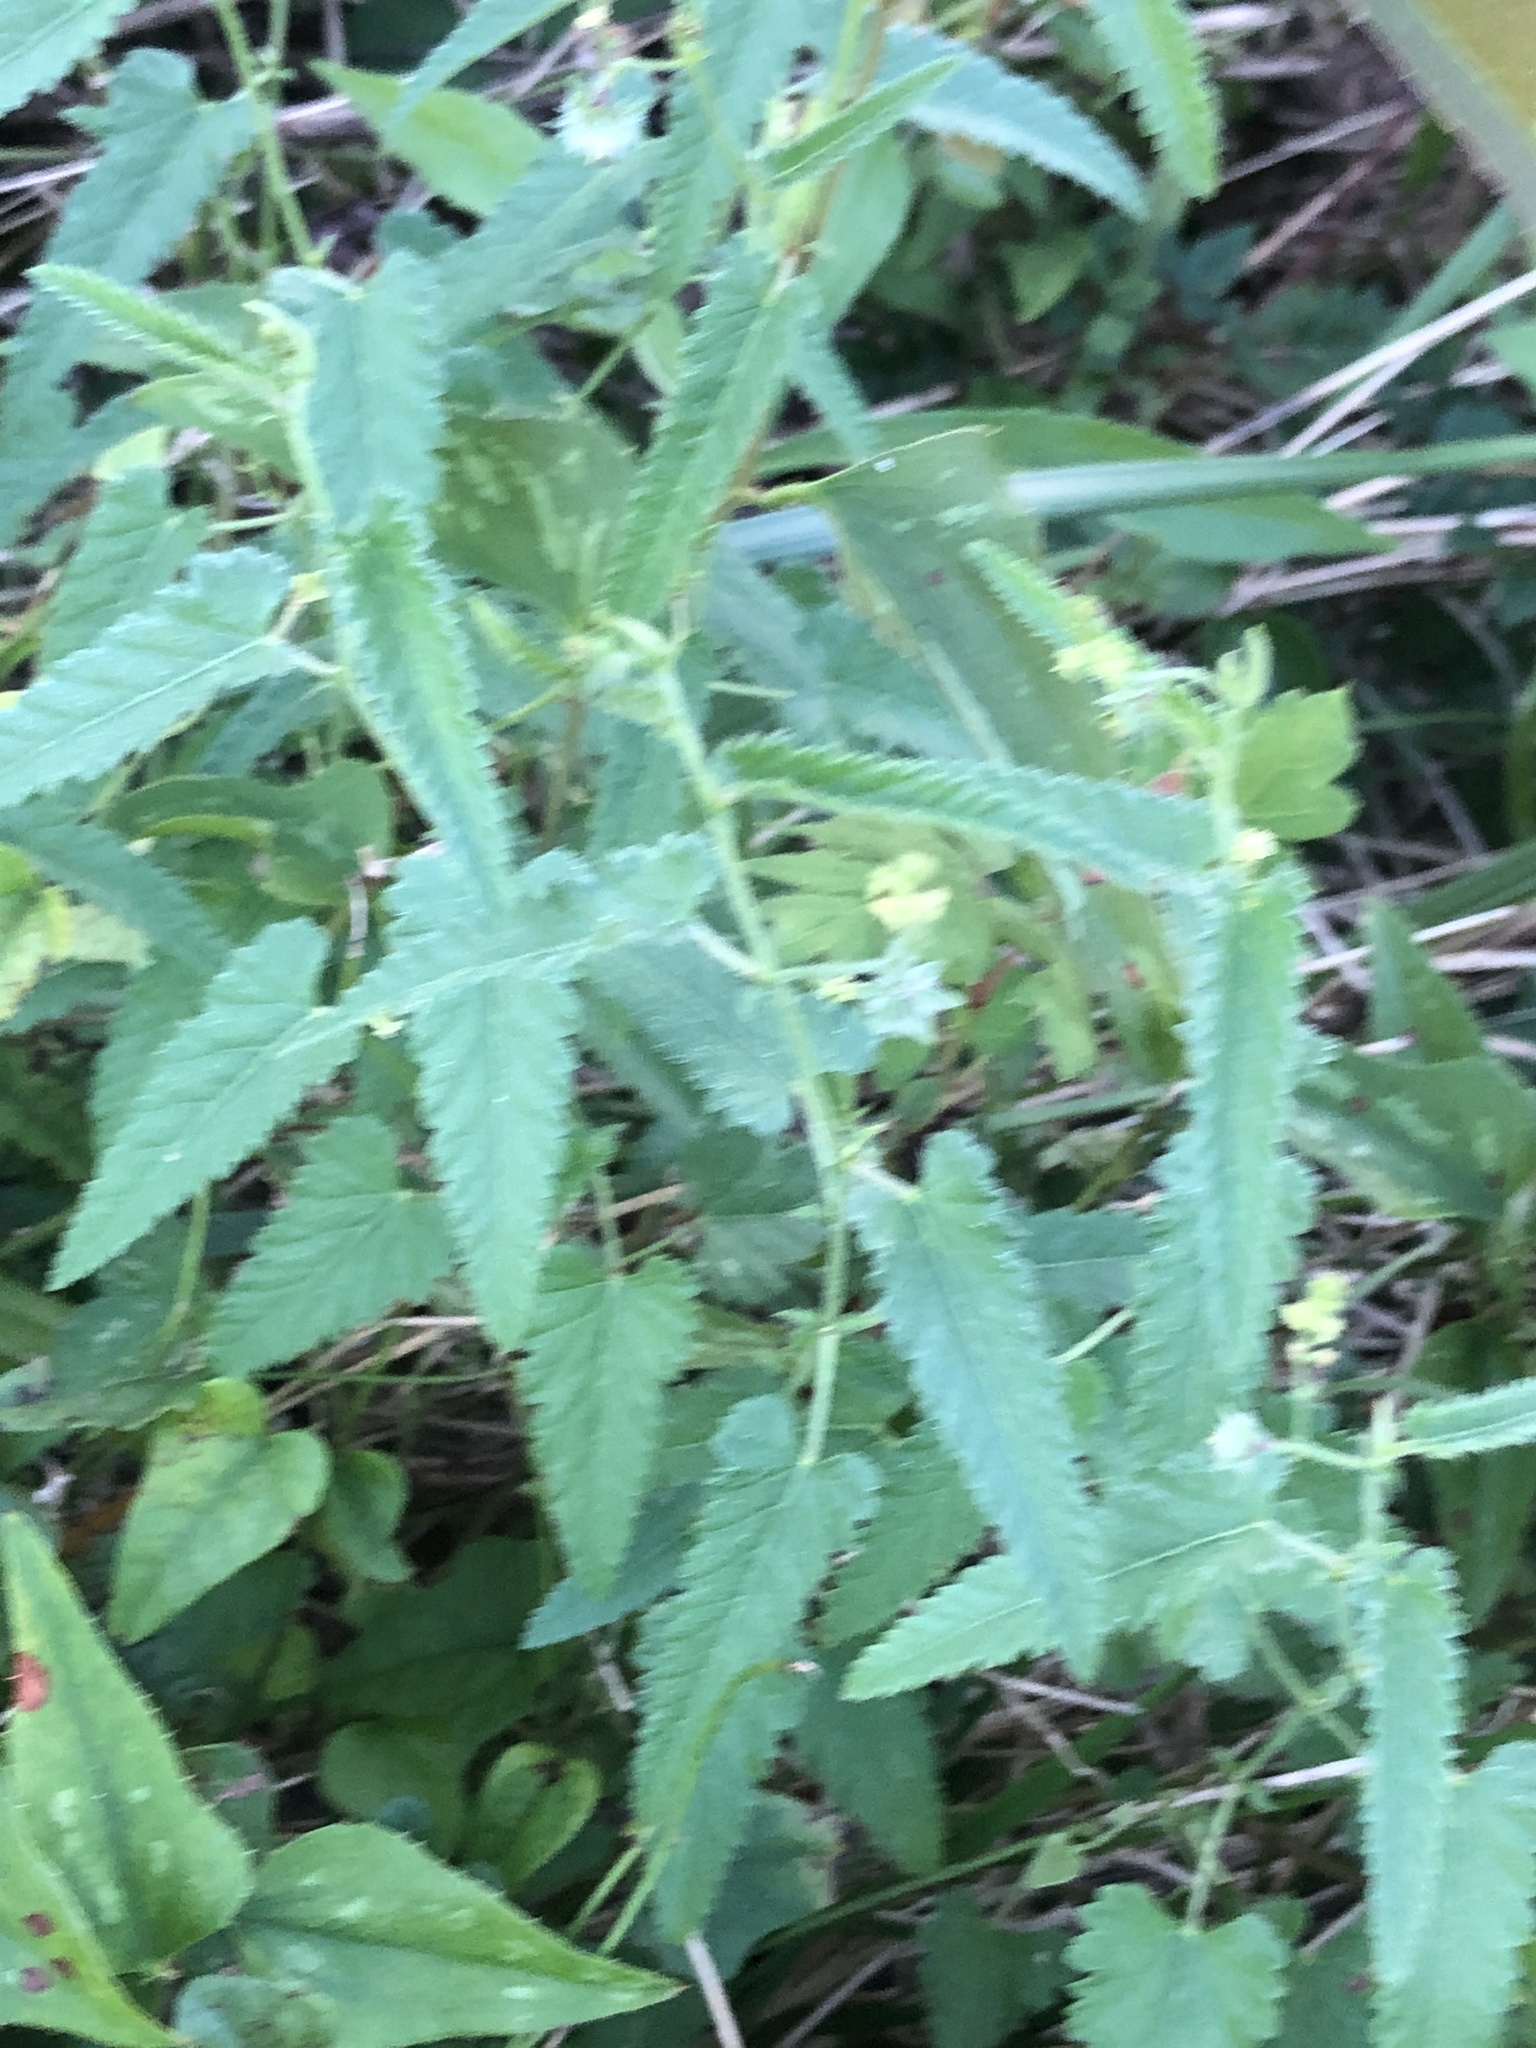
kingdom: Plantae
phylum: Tracheophyta
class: Magnoliopsida
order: Malpighiales
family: Euphorbiaceae
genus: Tragia
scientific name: Tragia urticifolia
